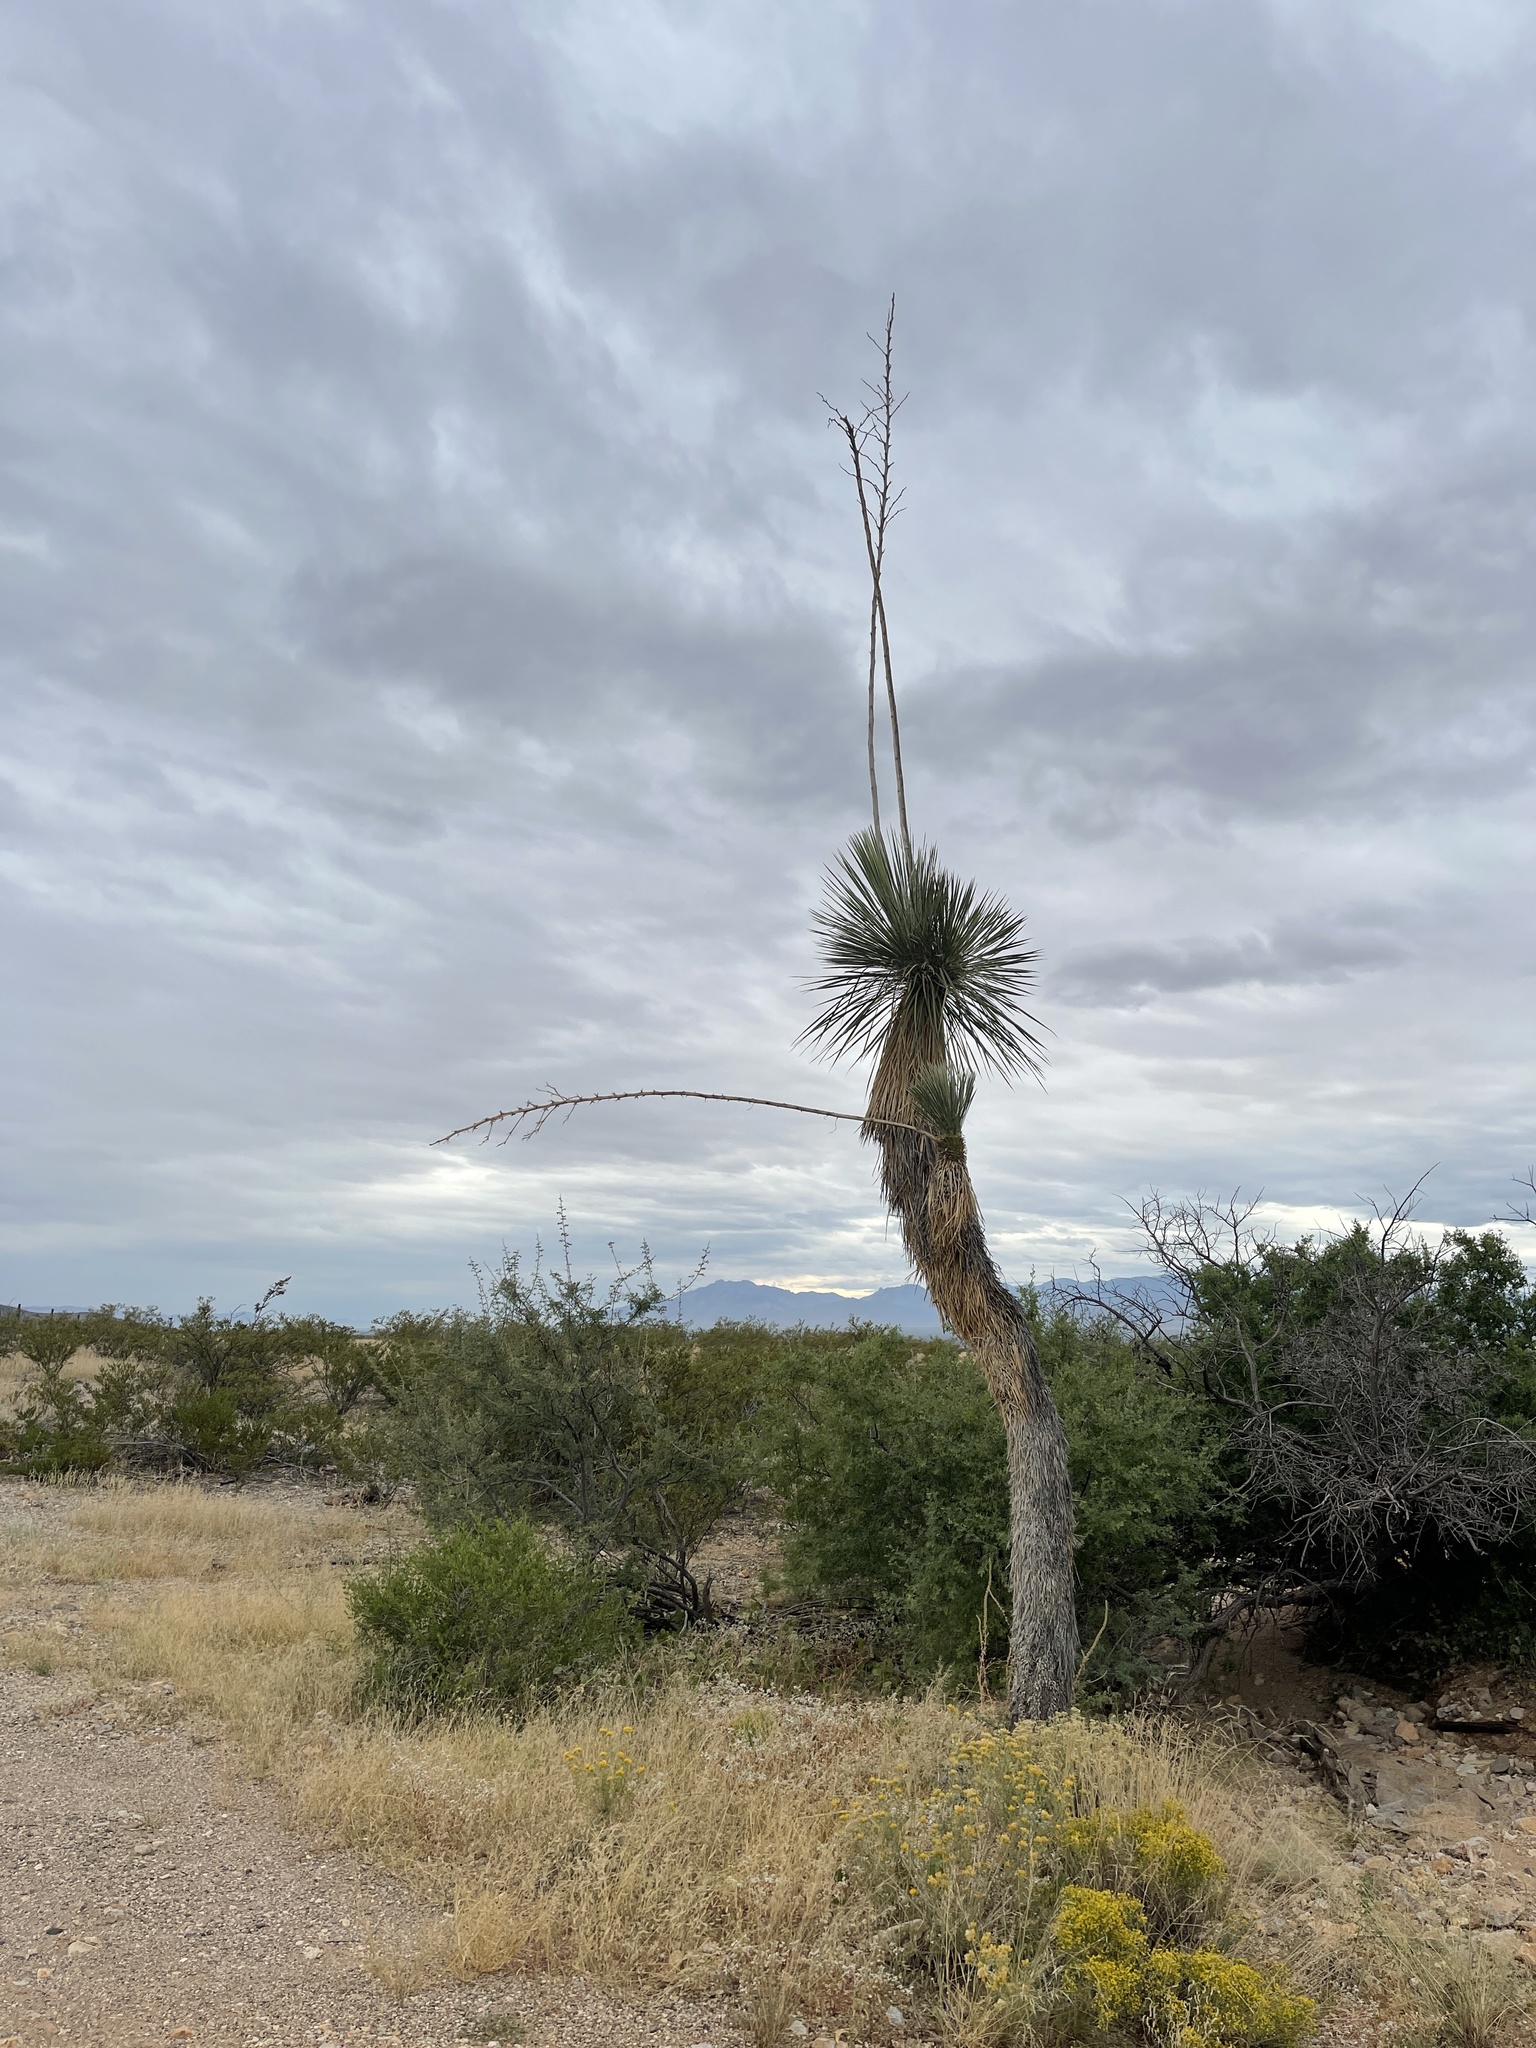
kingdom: Plantae
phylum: Tracheophyta
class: Liliopsida
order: Asparagales
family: Asparagaceae
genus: Yucca
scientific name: Yucca elata
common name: Palmella
